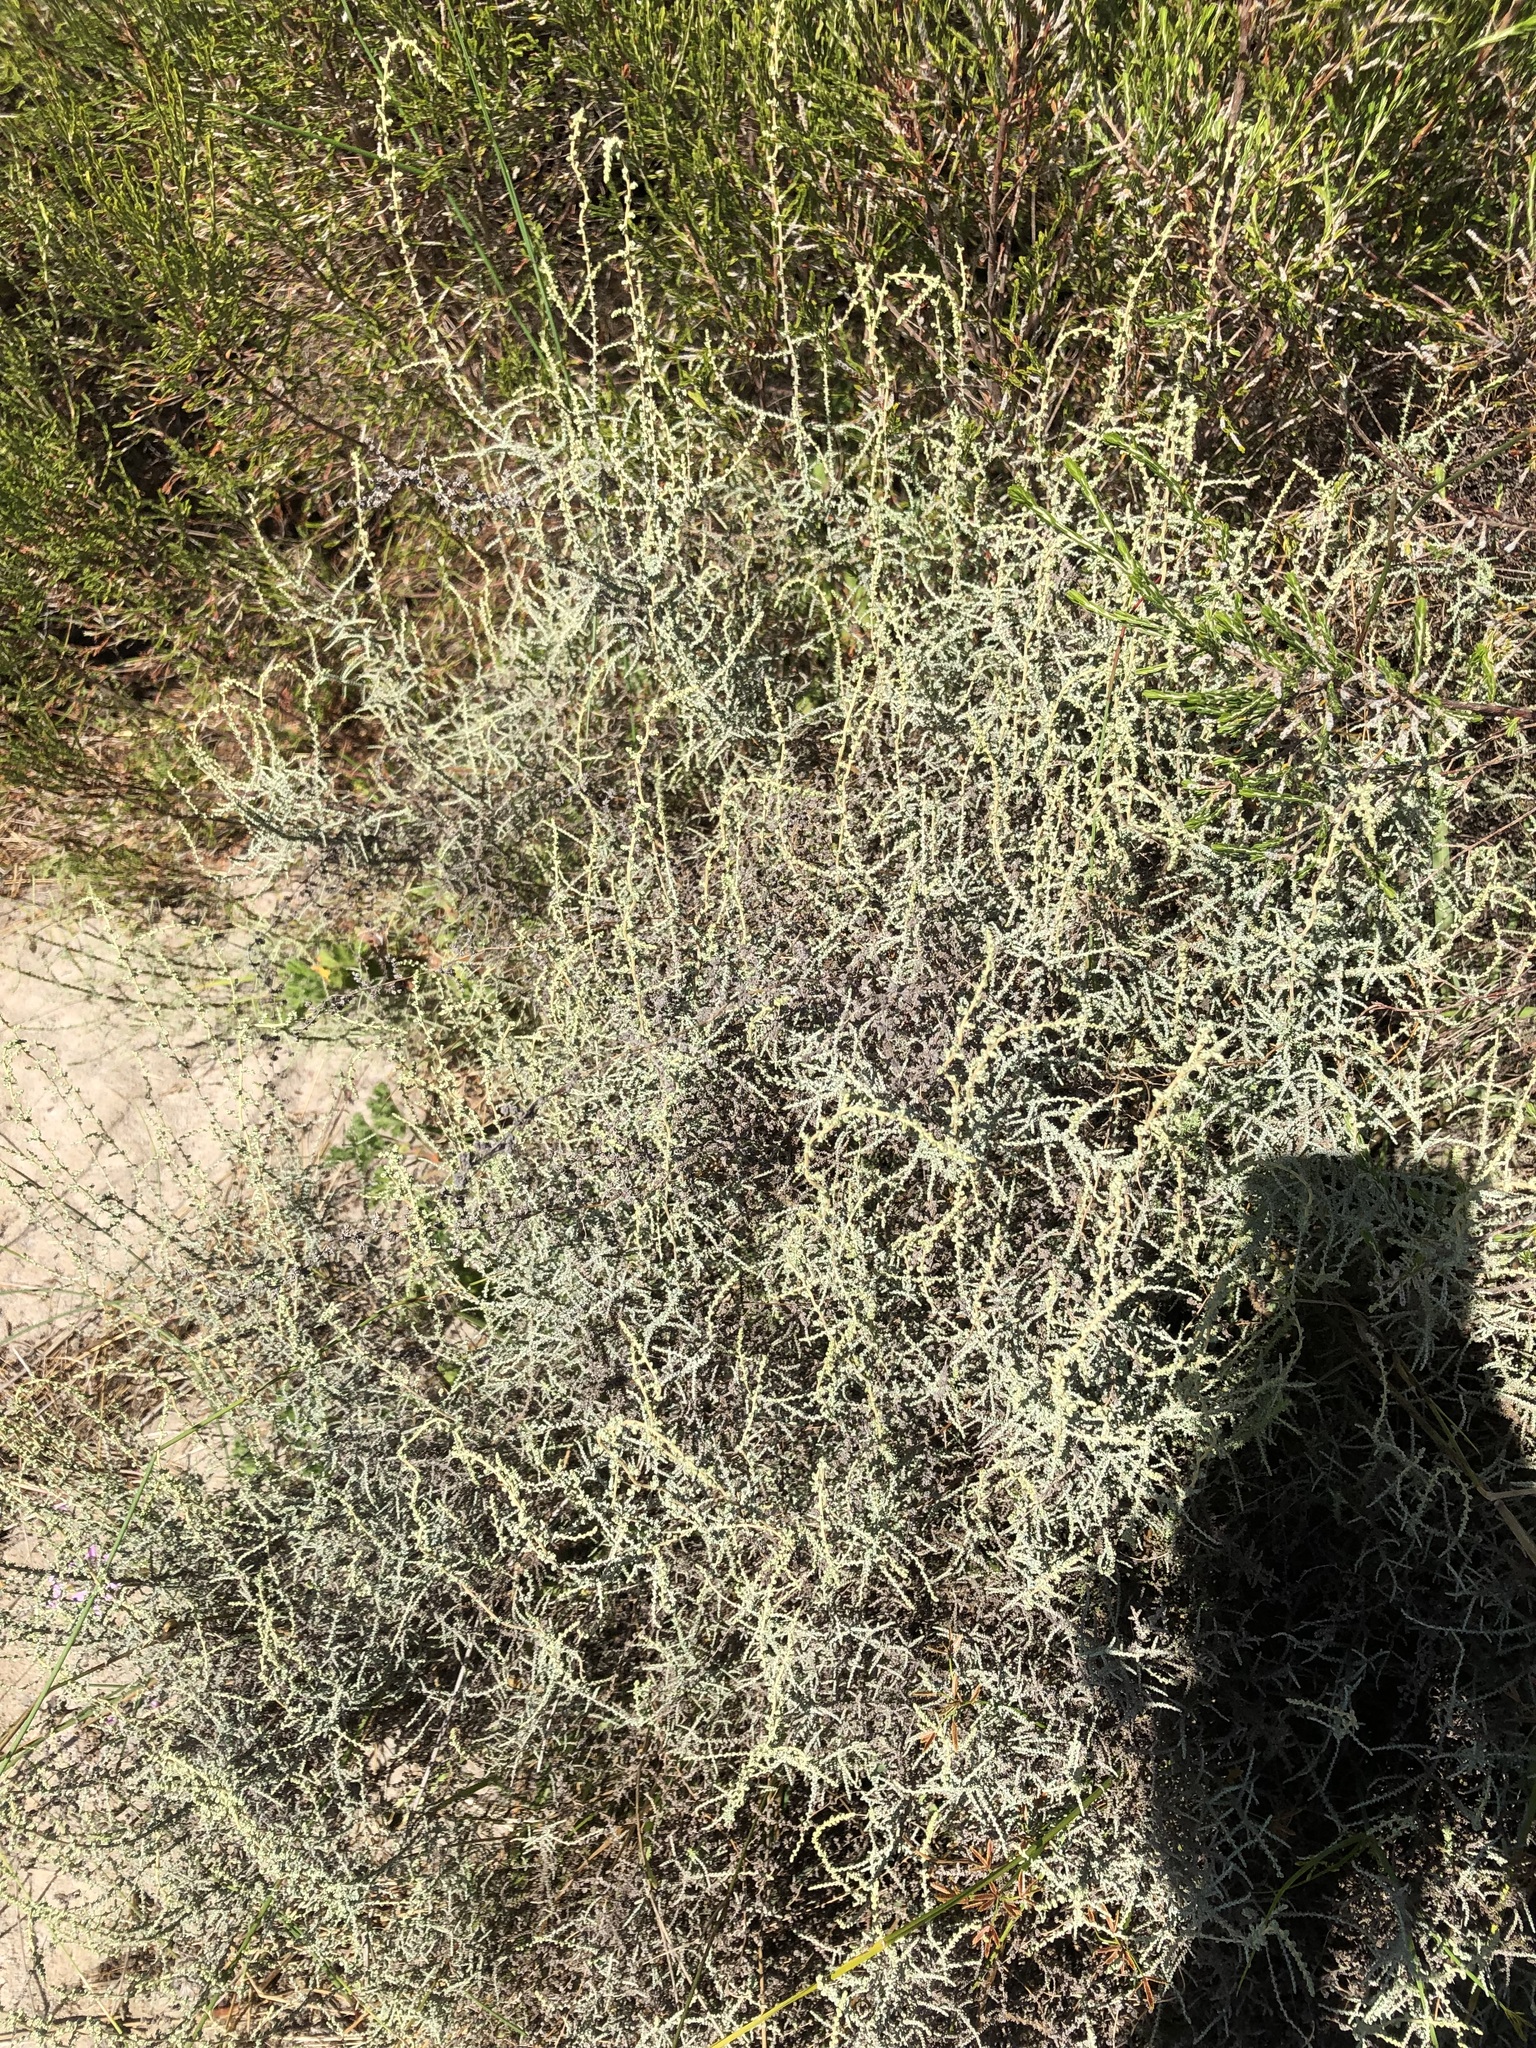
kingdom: Plantae
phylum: Tracheophyta
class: Magnoliopsida
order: Asterales
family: Asteraceae
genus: Seriphium
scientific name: Seriphium plumosum
